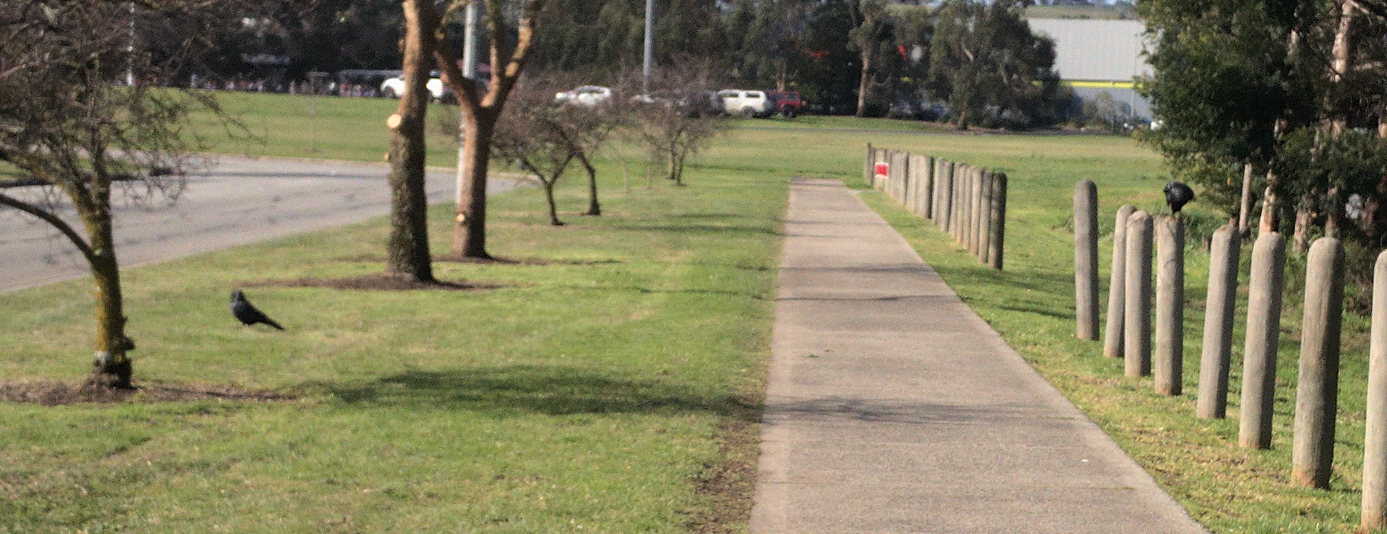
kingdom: Animalia
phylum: Chordata
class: Aves
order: Passeriformes
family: Corvidae
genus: Corvus
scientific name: Corvus mellori
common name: Little raven
